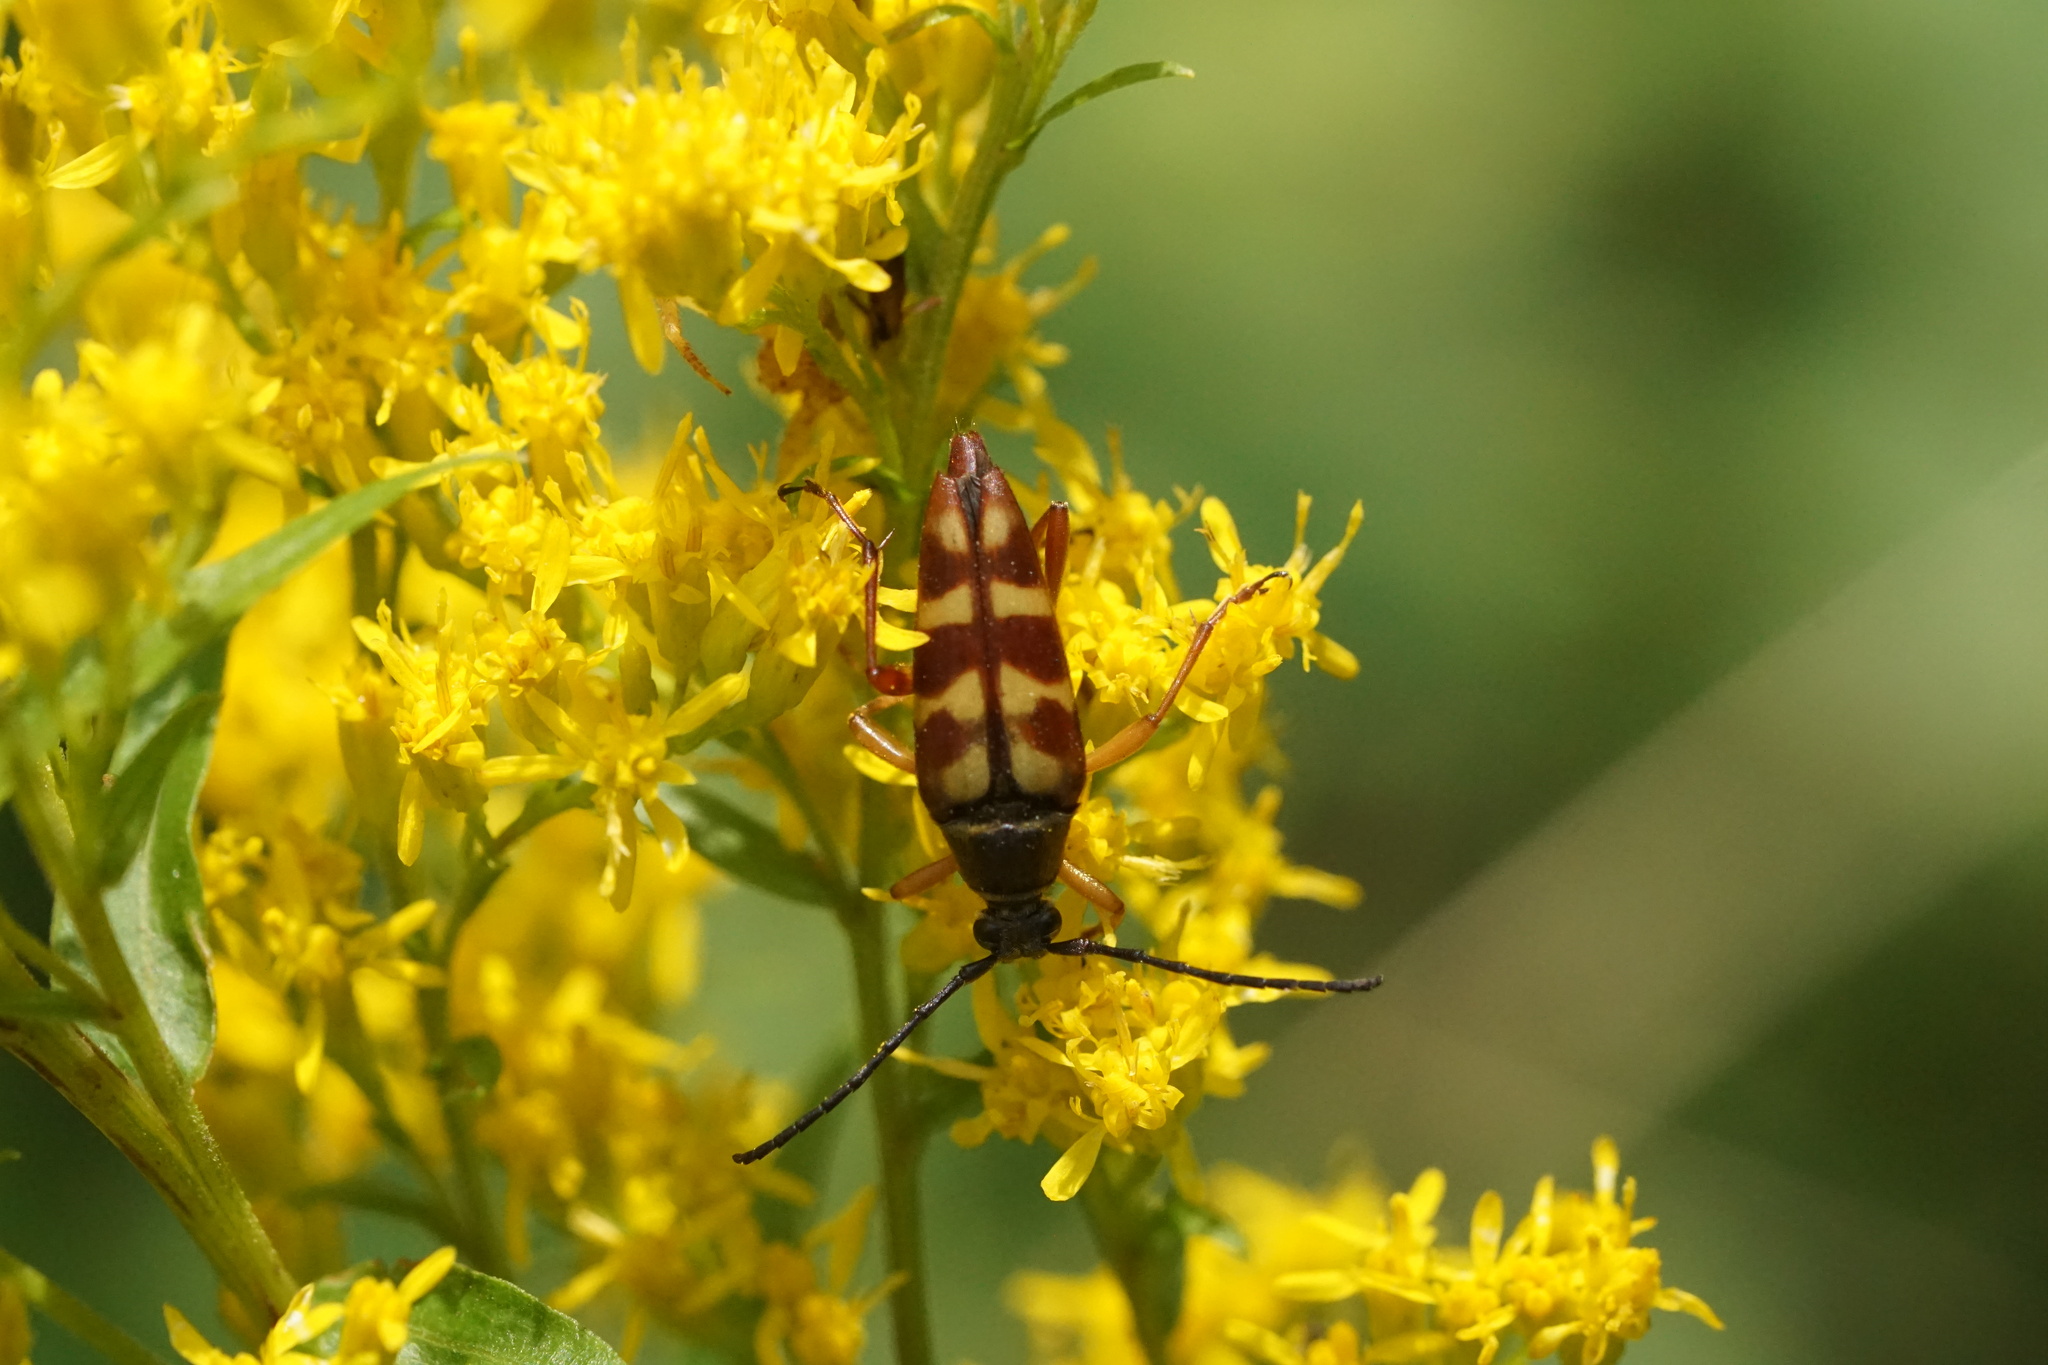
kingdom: Animalia
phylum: Arthropoda
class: Insecta
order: Coleoptera
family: Cerambycidae
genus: Typocerus
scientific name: Typocerus velutinus
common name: Banded longhorn beetle
